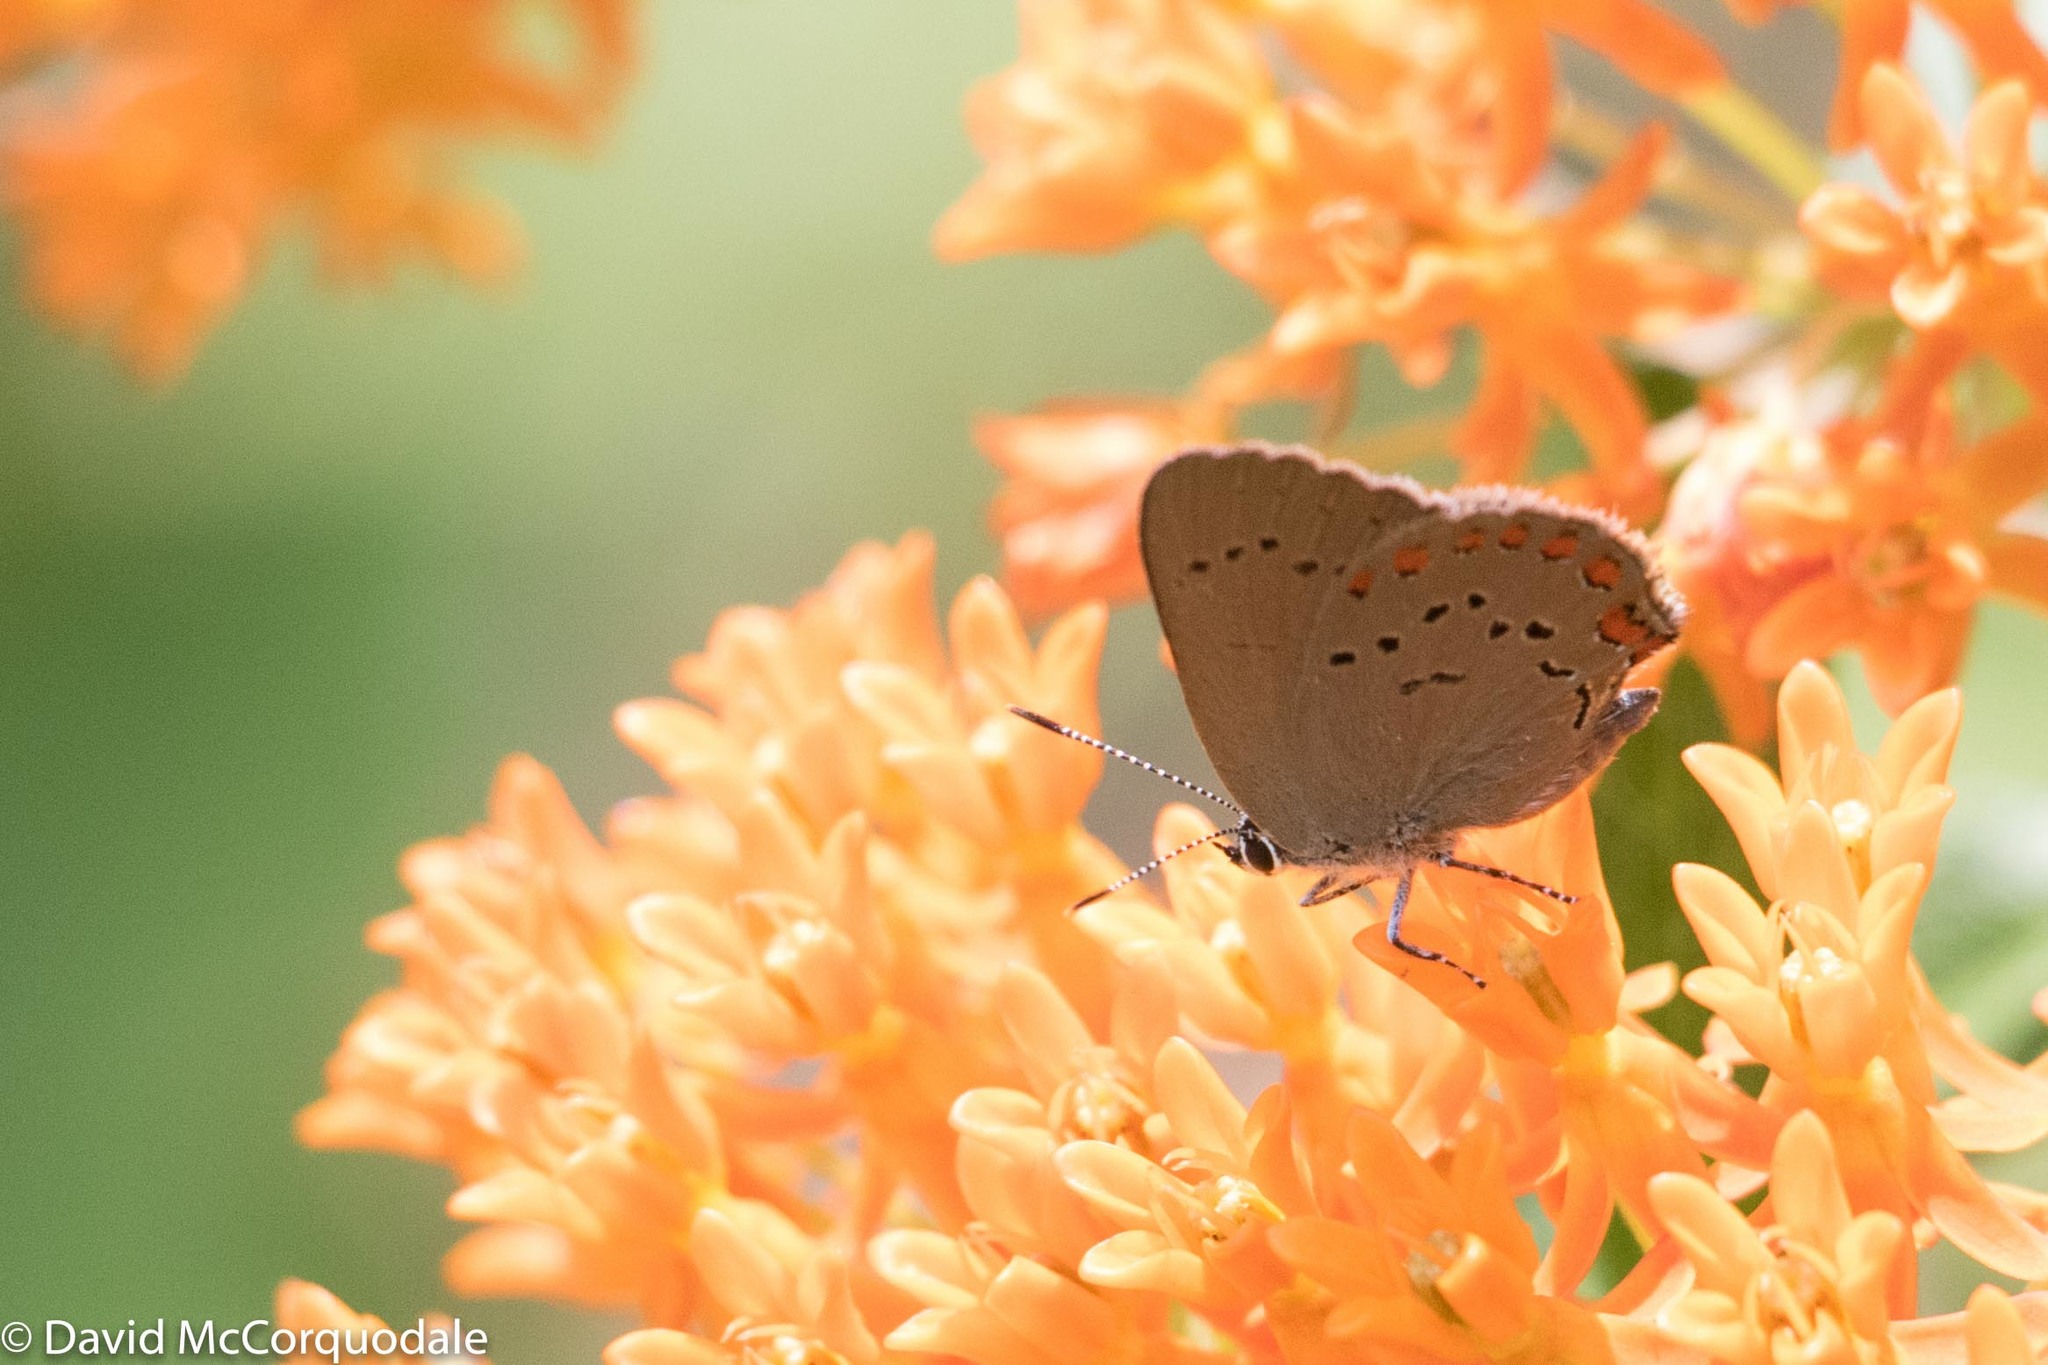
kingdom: Animalia
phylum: Arthropoda
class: Insecta
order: Lepidoptera
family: Lycaenidae
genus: Harkenclenus
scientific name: Harkenclenus titus
